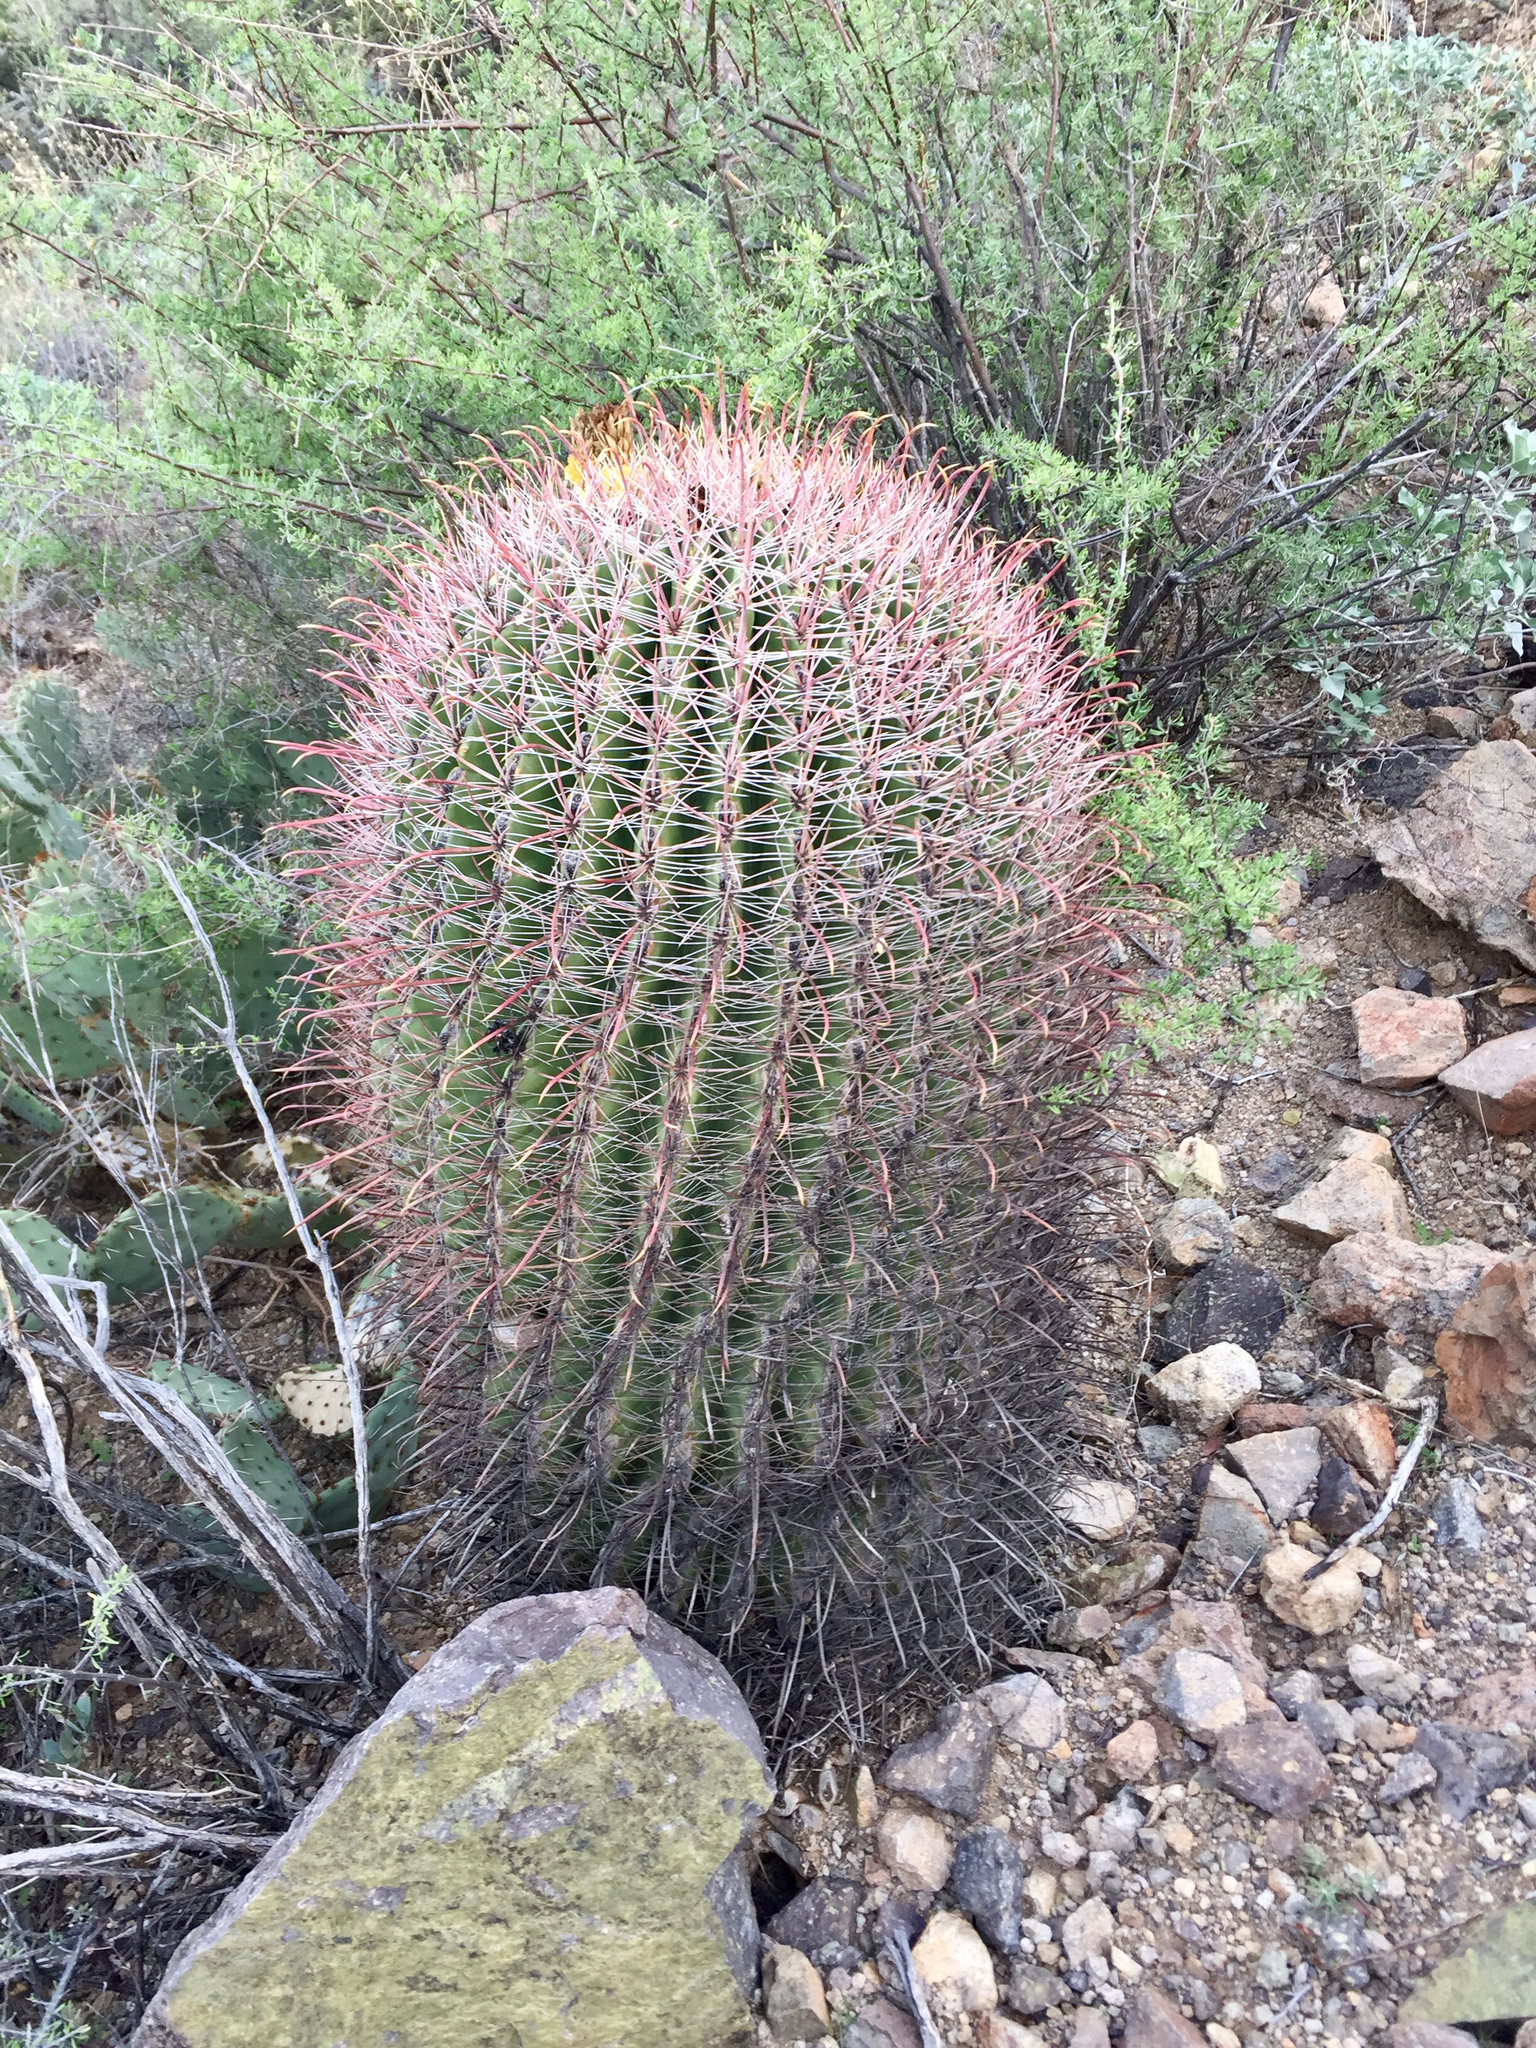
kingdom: Plantae
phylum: Tracheophyta
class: Magnoliopsida
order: Caryophyllales
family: Cactaceae
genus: Ferocactus
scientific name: Ferocactus wislizeni
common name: Candy barrel cactus
